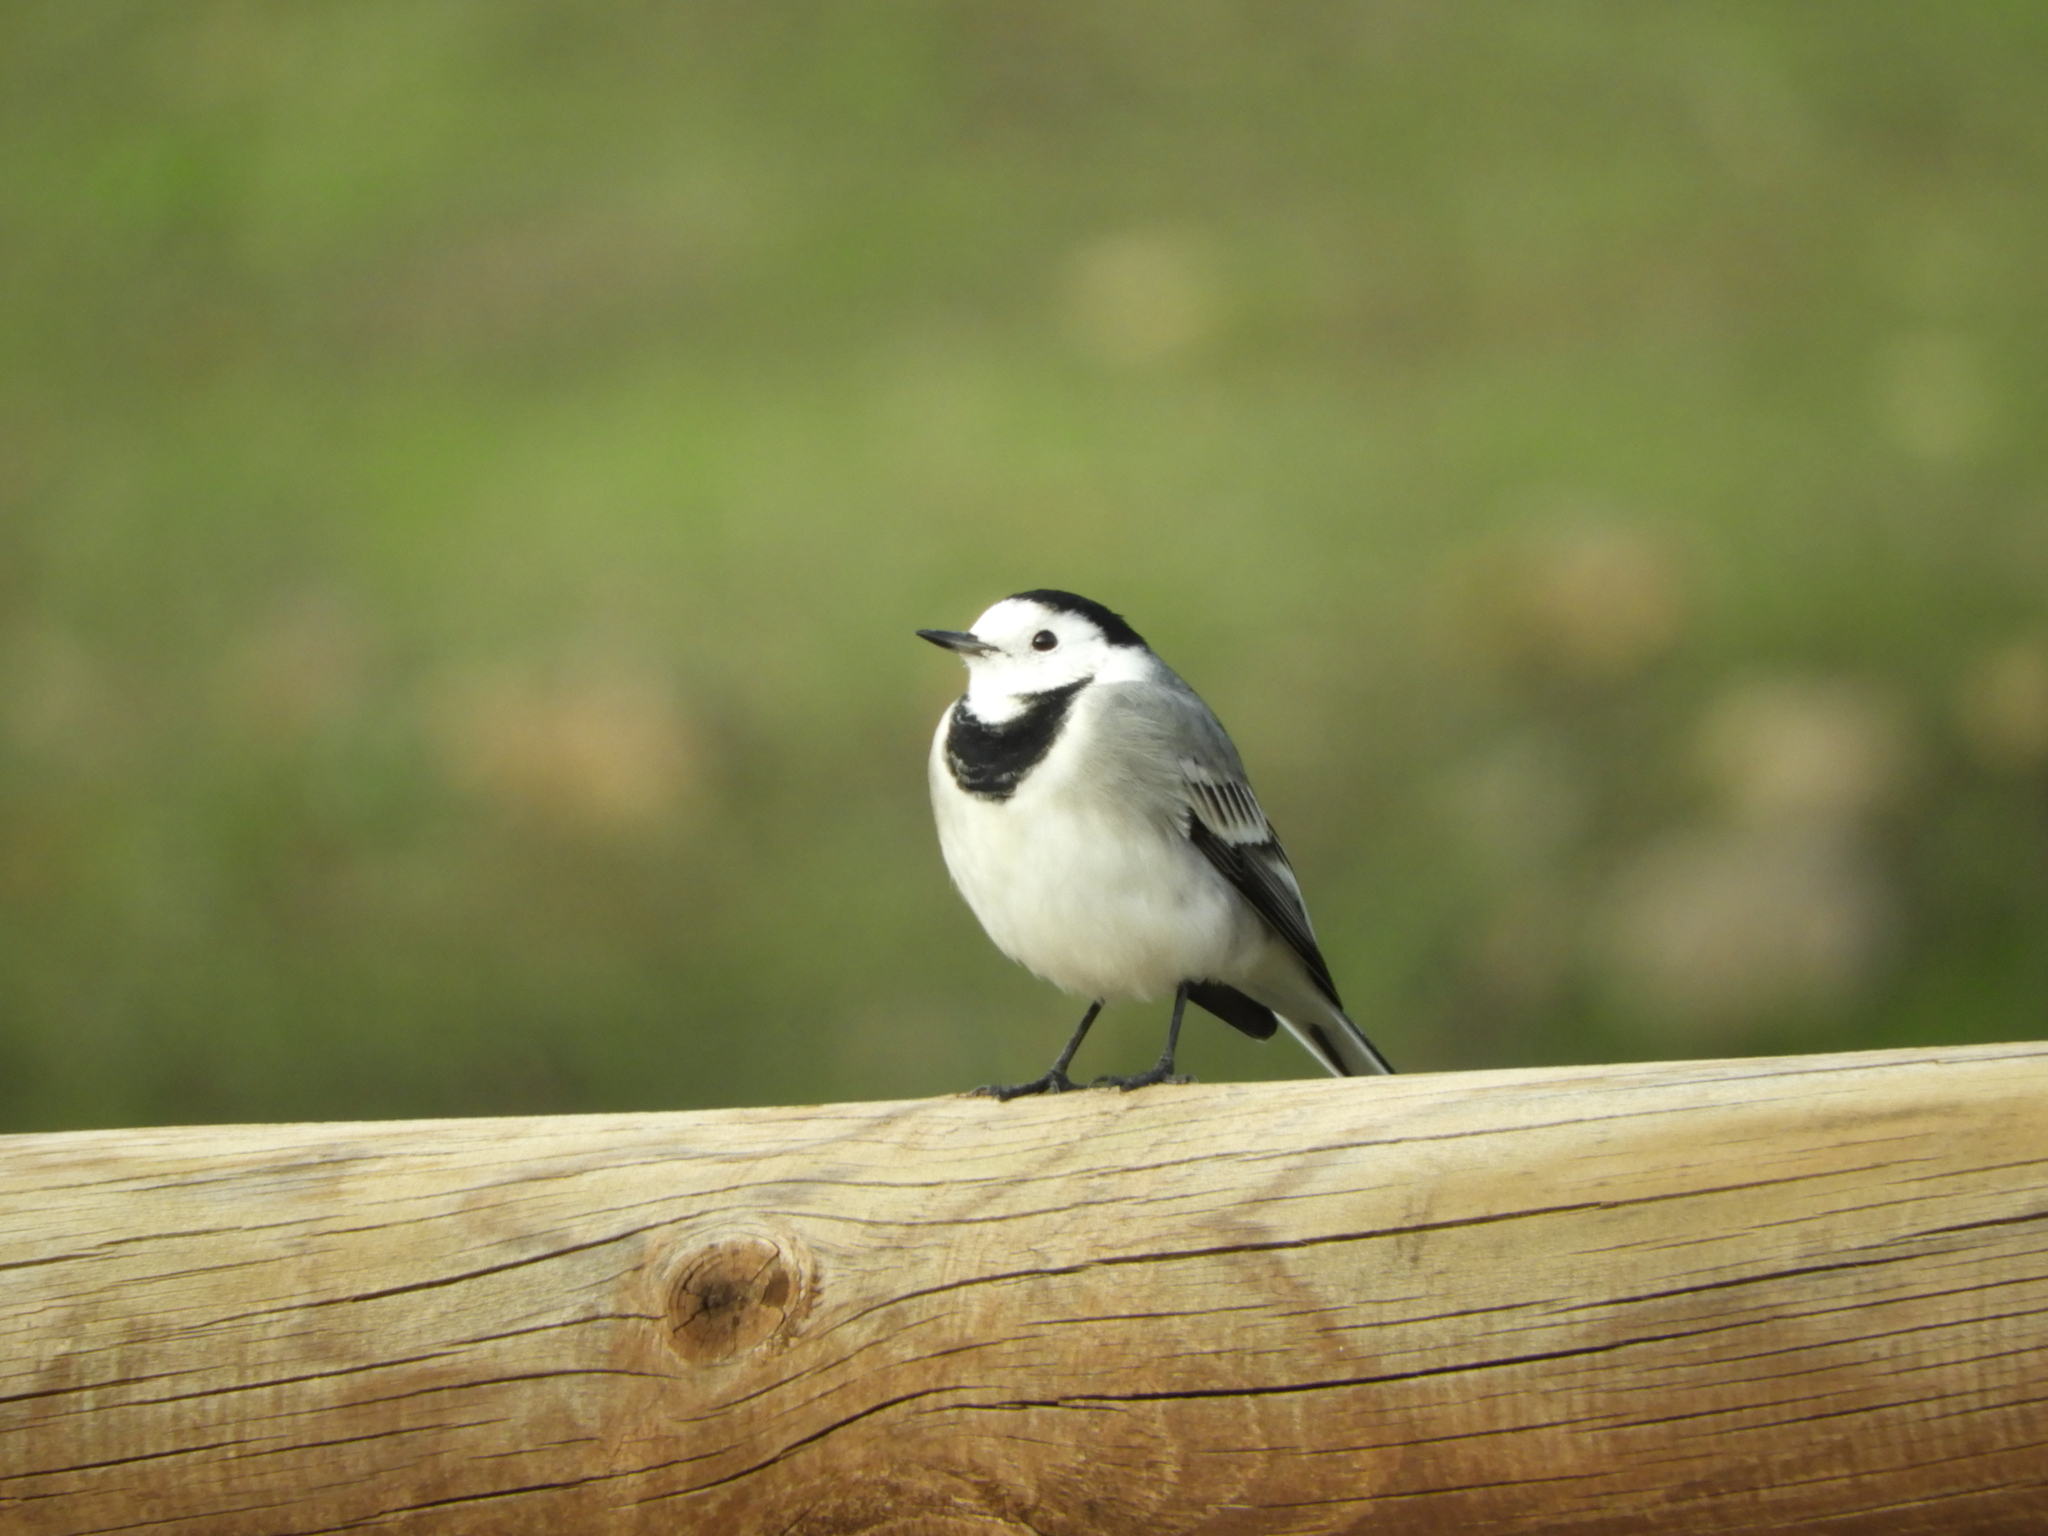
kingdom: Animalia
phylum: Chordata
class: Aves
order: Passeriformes
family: Motacillidae
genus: Motacilla
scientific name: Motacilla alba
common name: White wagtail
